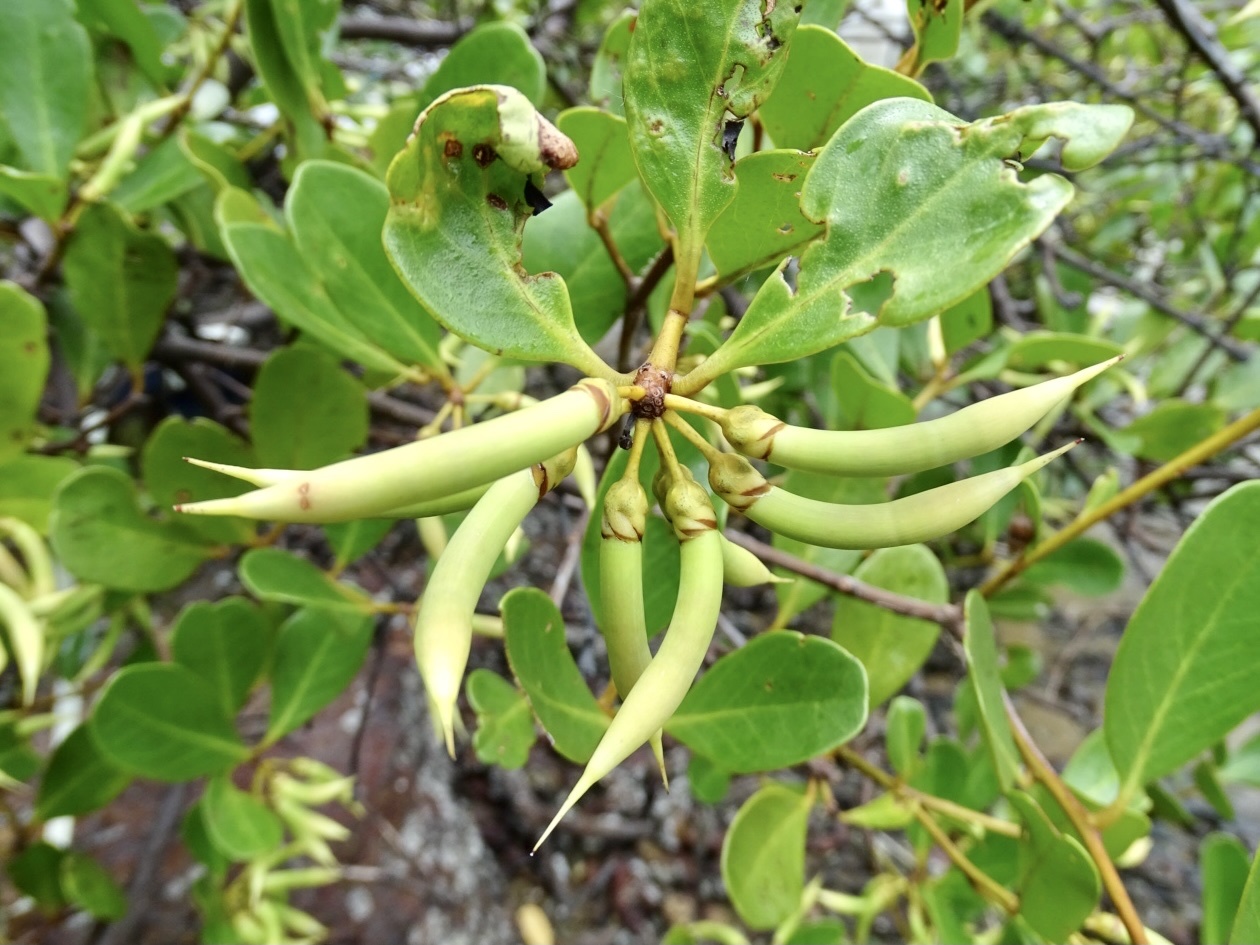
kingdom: Plantae
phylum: Tracheophyta
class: Magnoliopsida
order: Ericales
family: Primulaceae
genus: Aegiceras
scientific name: Aegiceras corniculatum
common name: River mangrove
